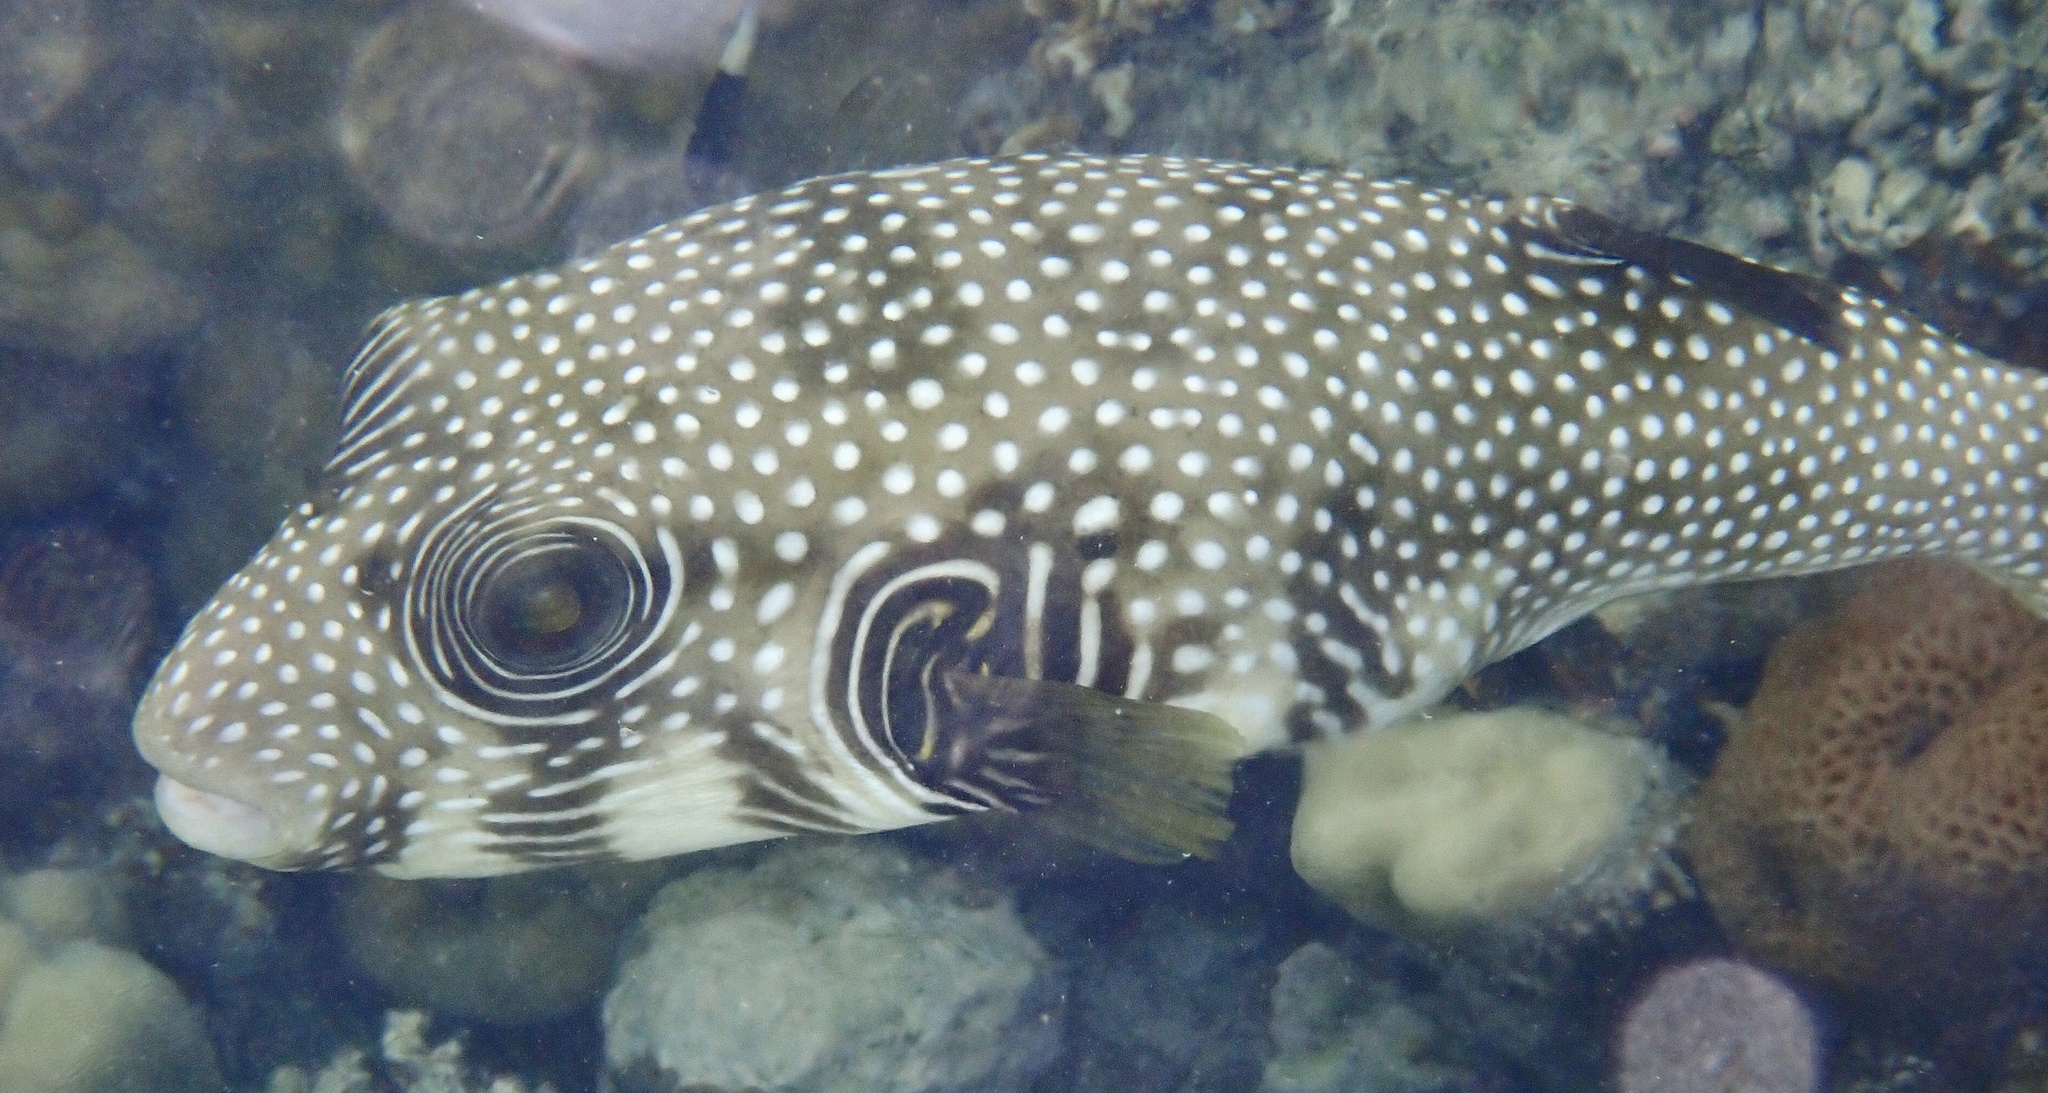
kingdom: Animalia
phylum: Chordata
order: Tetraodontiformes
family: Tetraodontidae
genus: Arothron
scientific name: Arothron hispidus
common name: Stripebelly puffer
